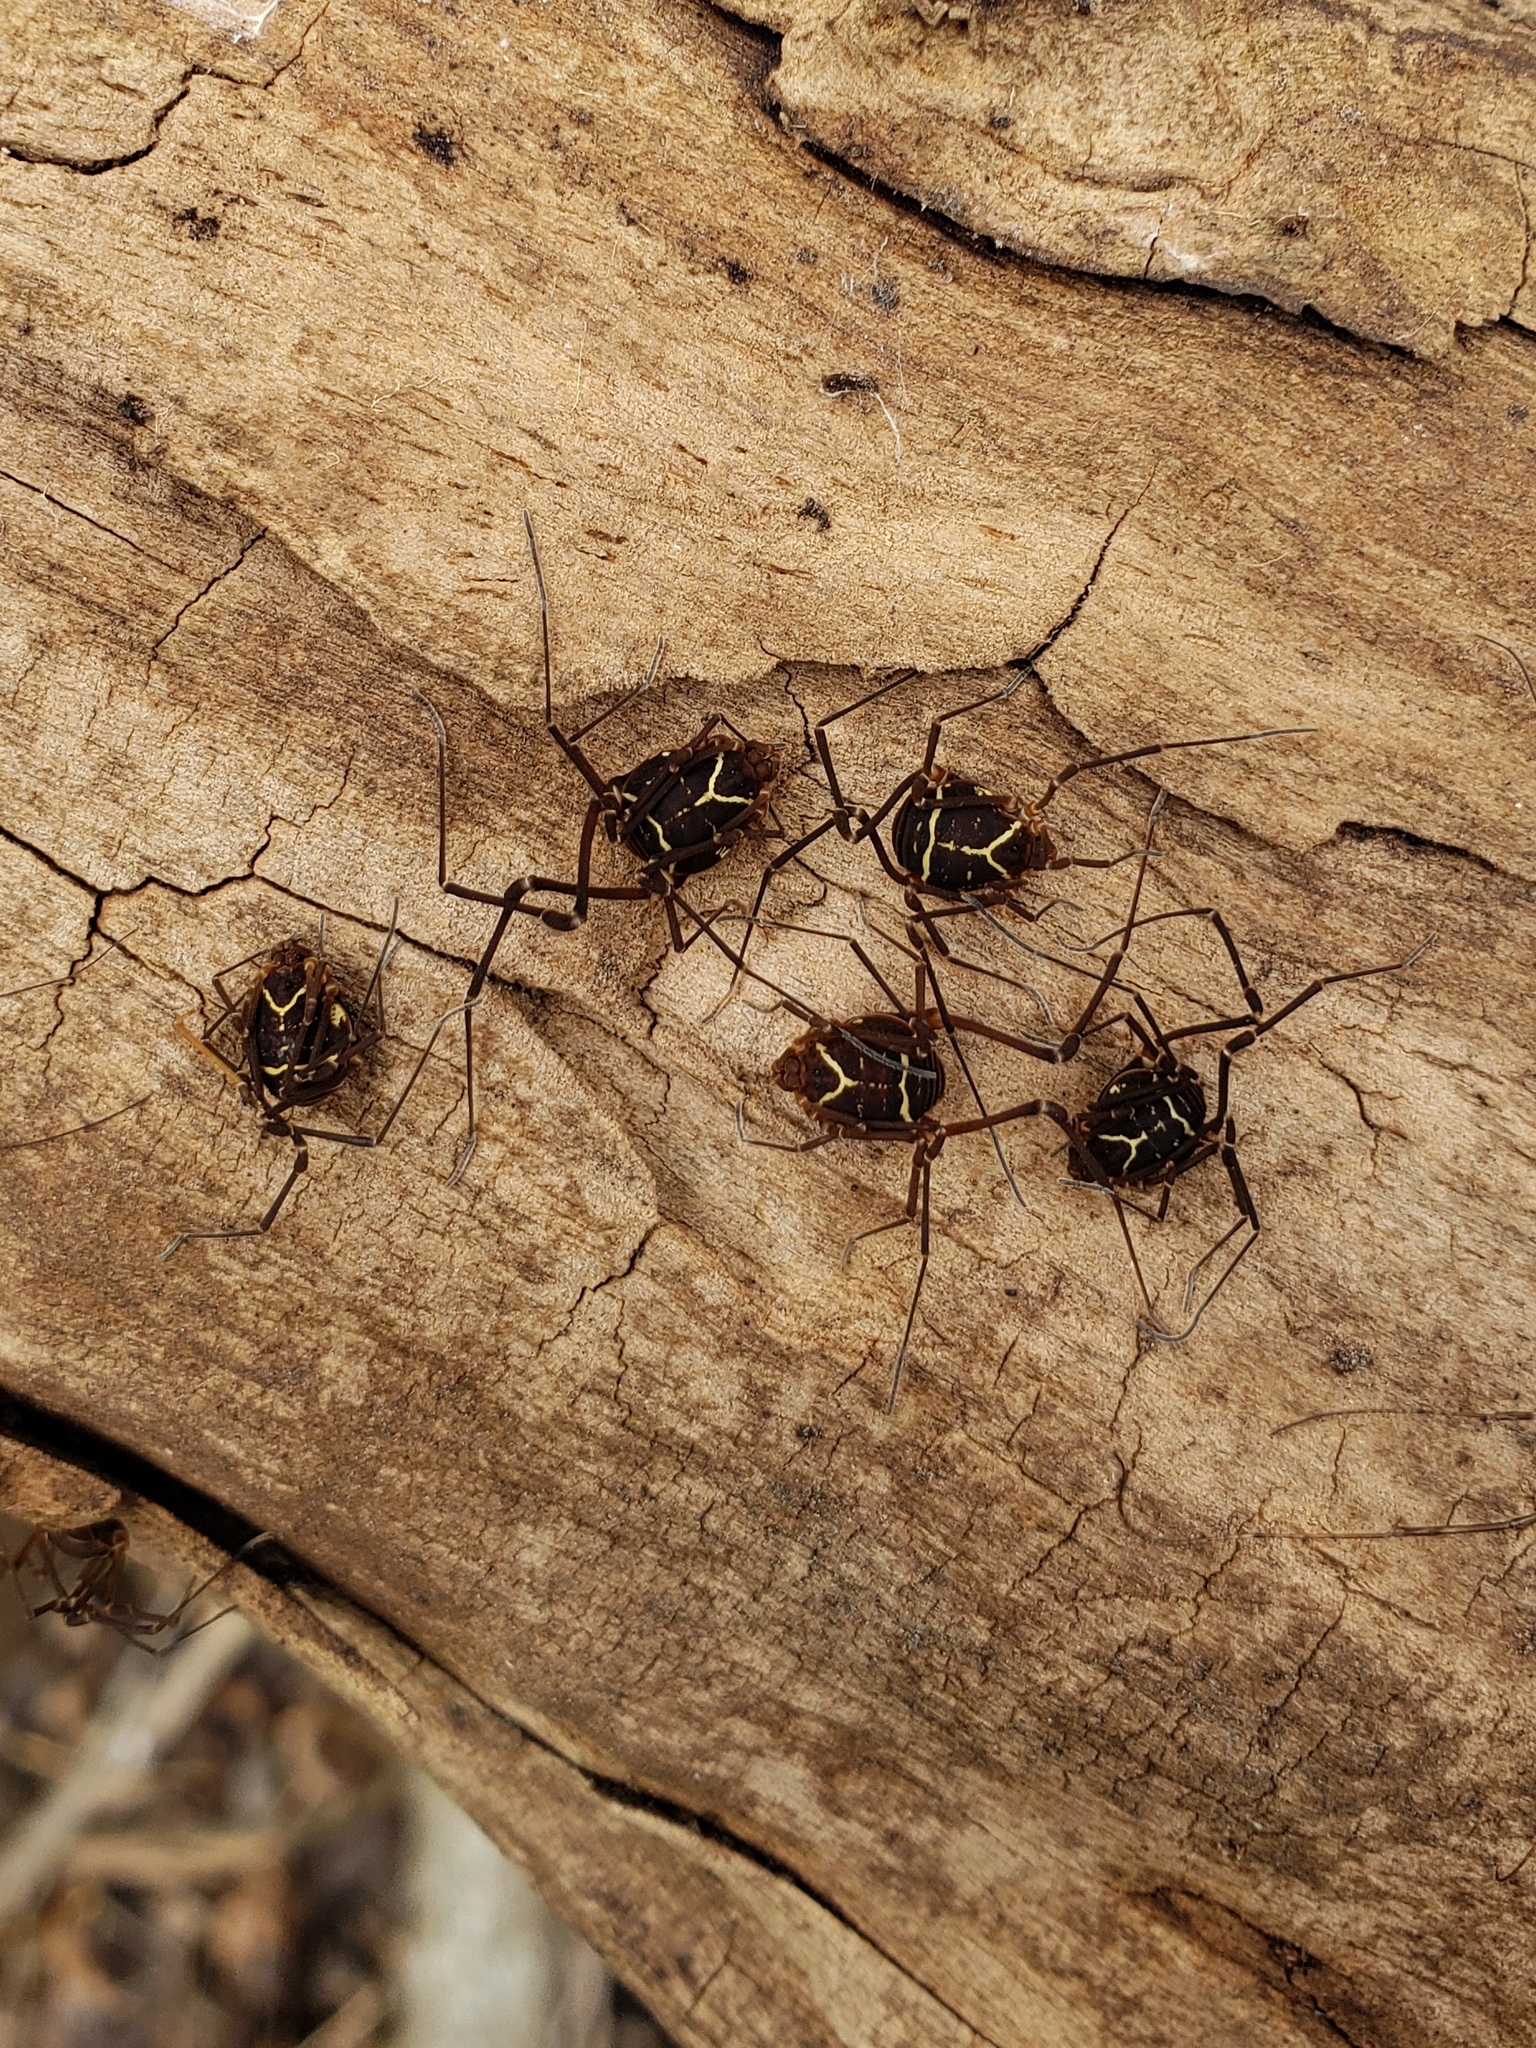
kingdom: Animalia
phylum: Arthropoda
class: Arachnida
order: Opiliones
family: Cosmetidae
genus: Libitioides
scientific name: Libitioides sayi
